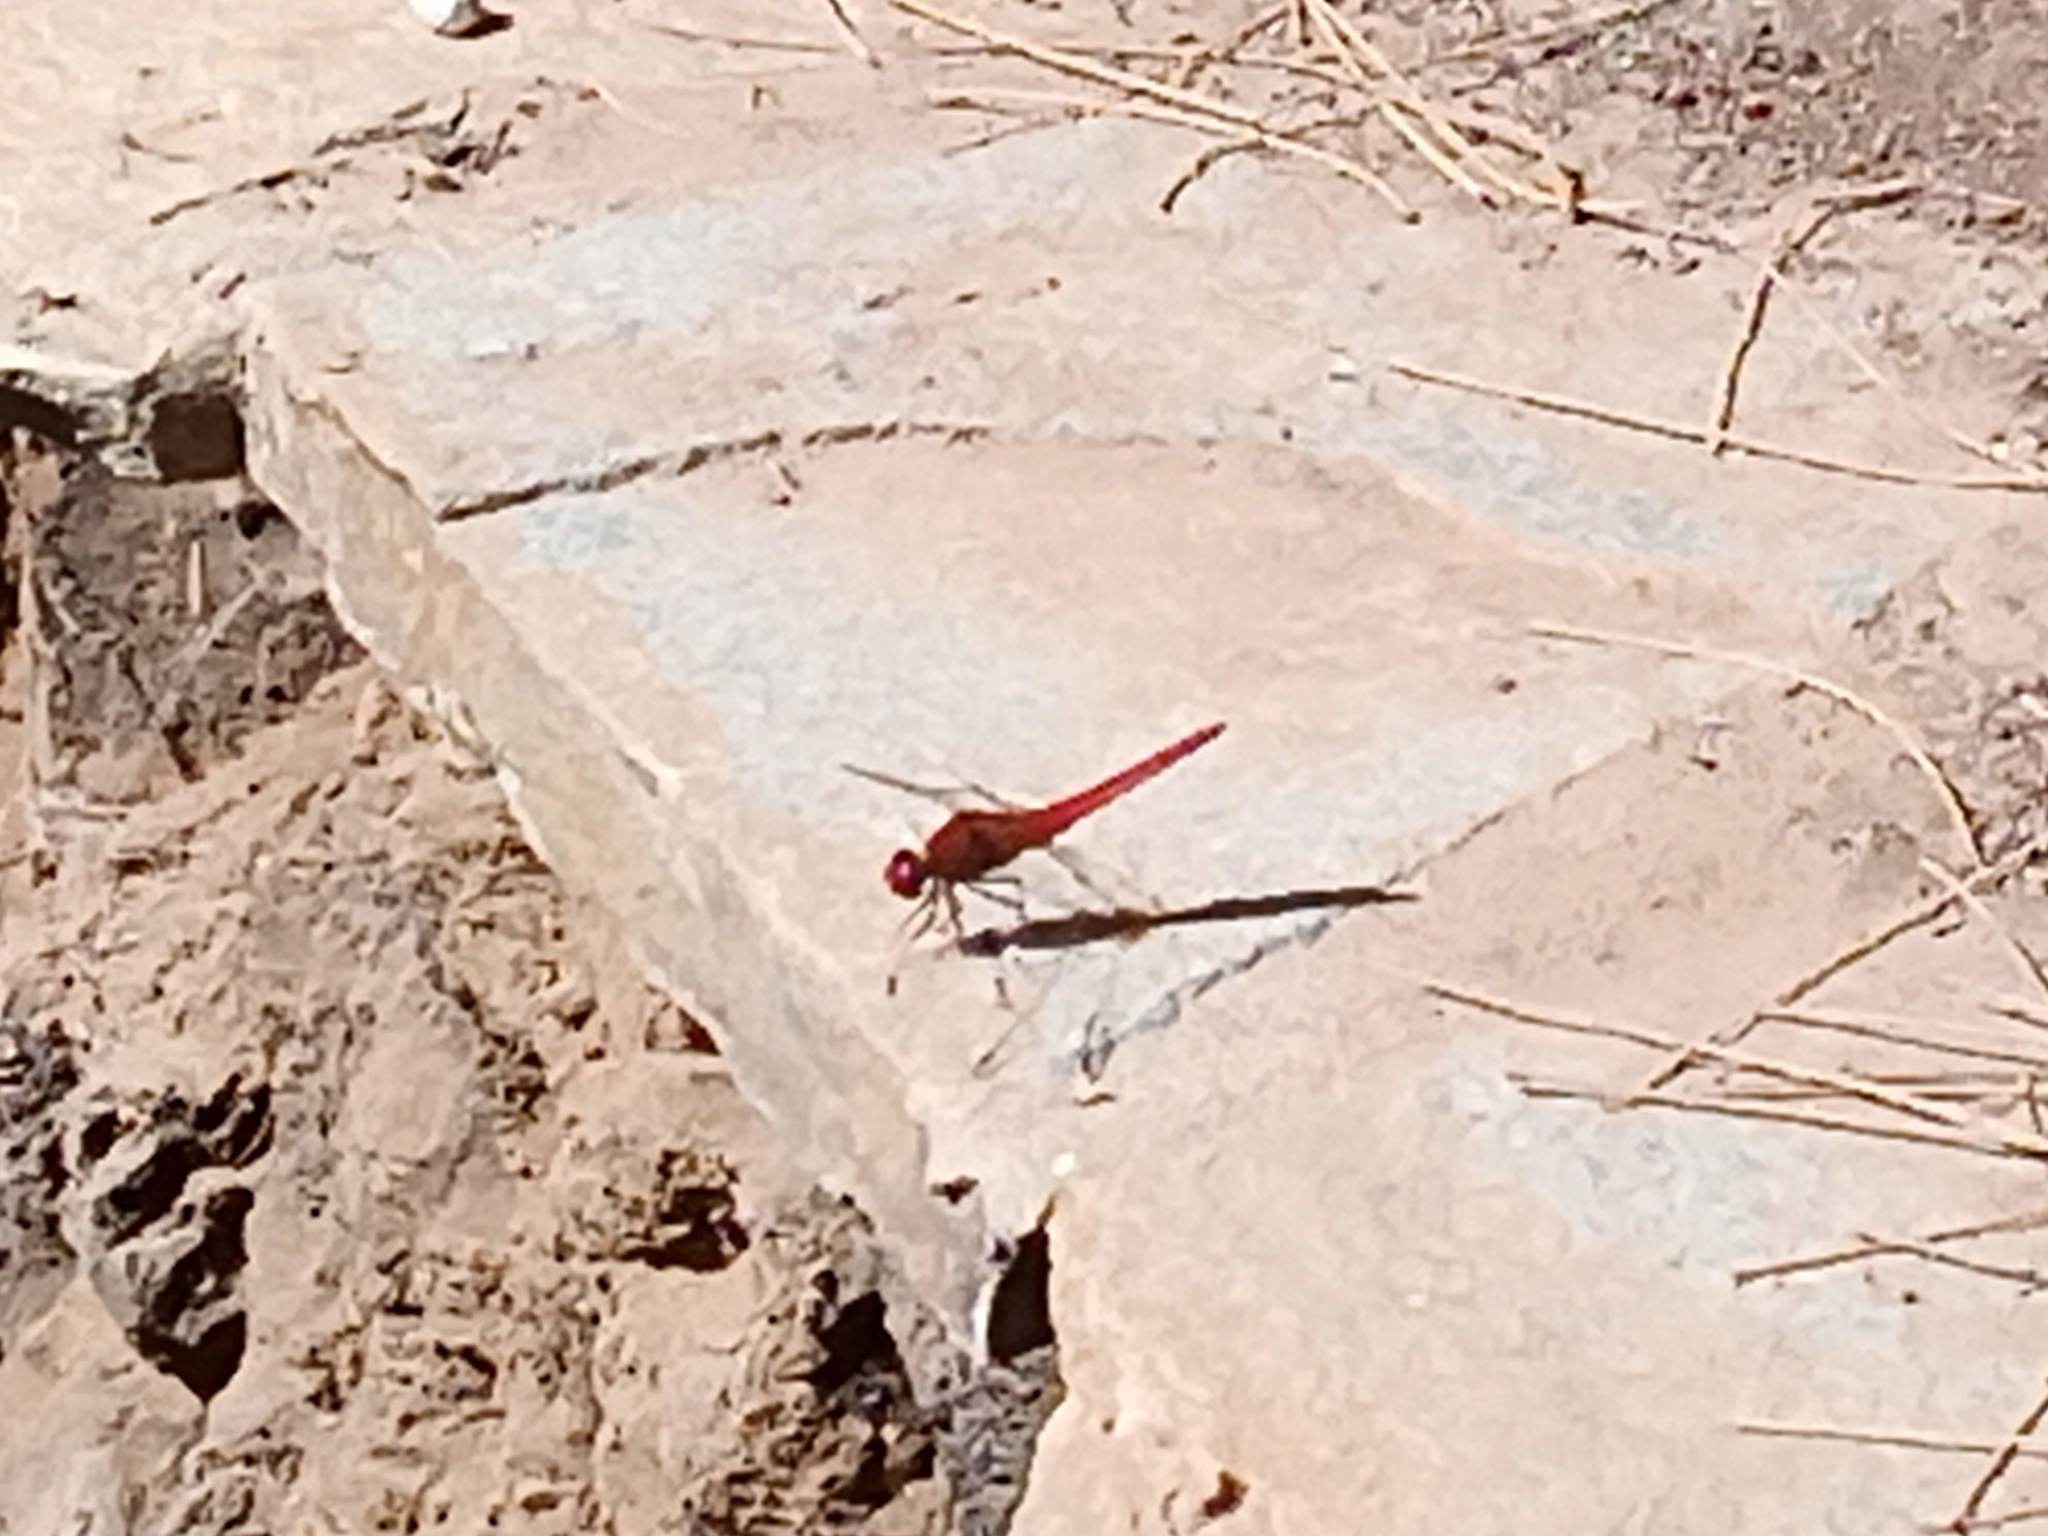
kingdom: Animalia
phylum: Arthropoda
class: Insecta
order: Odonata
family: Libellulidae
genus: Crocothemis
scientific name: Crocothemis erythraea
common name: Scarlet dragonfly
